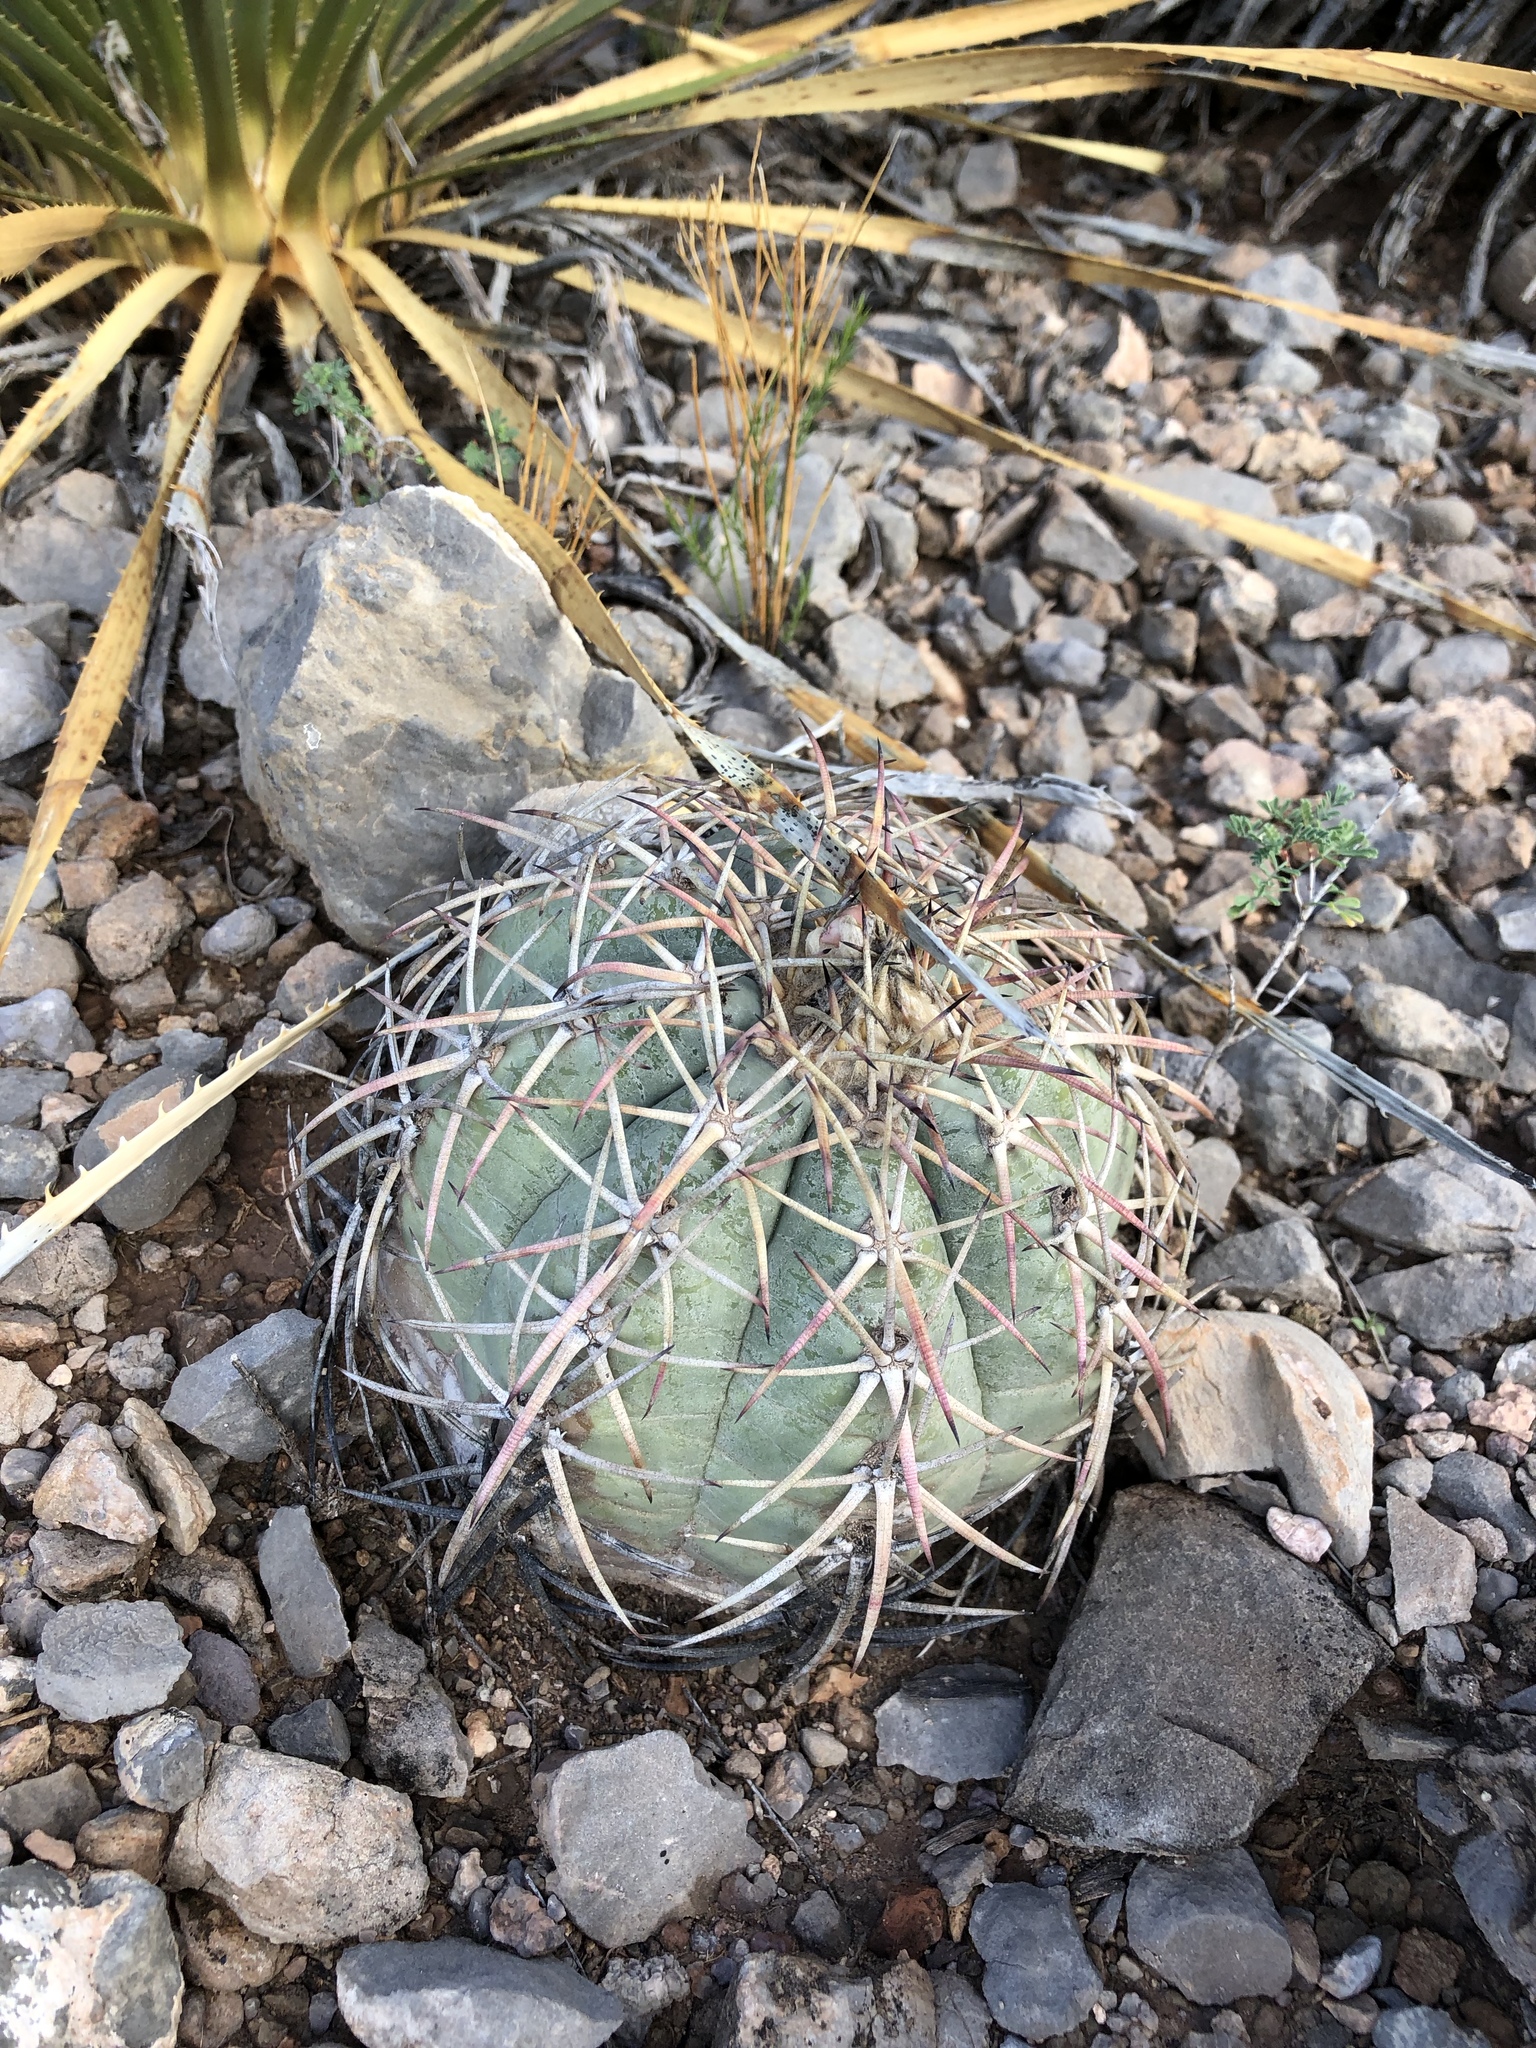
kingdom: Plantae
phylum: Tracheophyta
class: Magnoliopsida
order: Caryophyllales
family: Cactaceae
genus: Echinocactus
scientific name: Echinocactus horizonthalonius
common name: Devilshead
